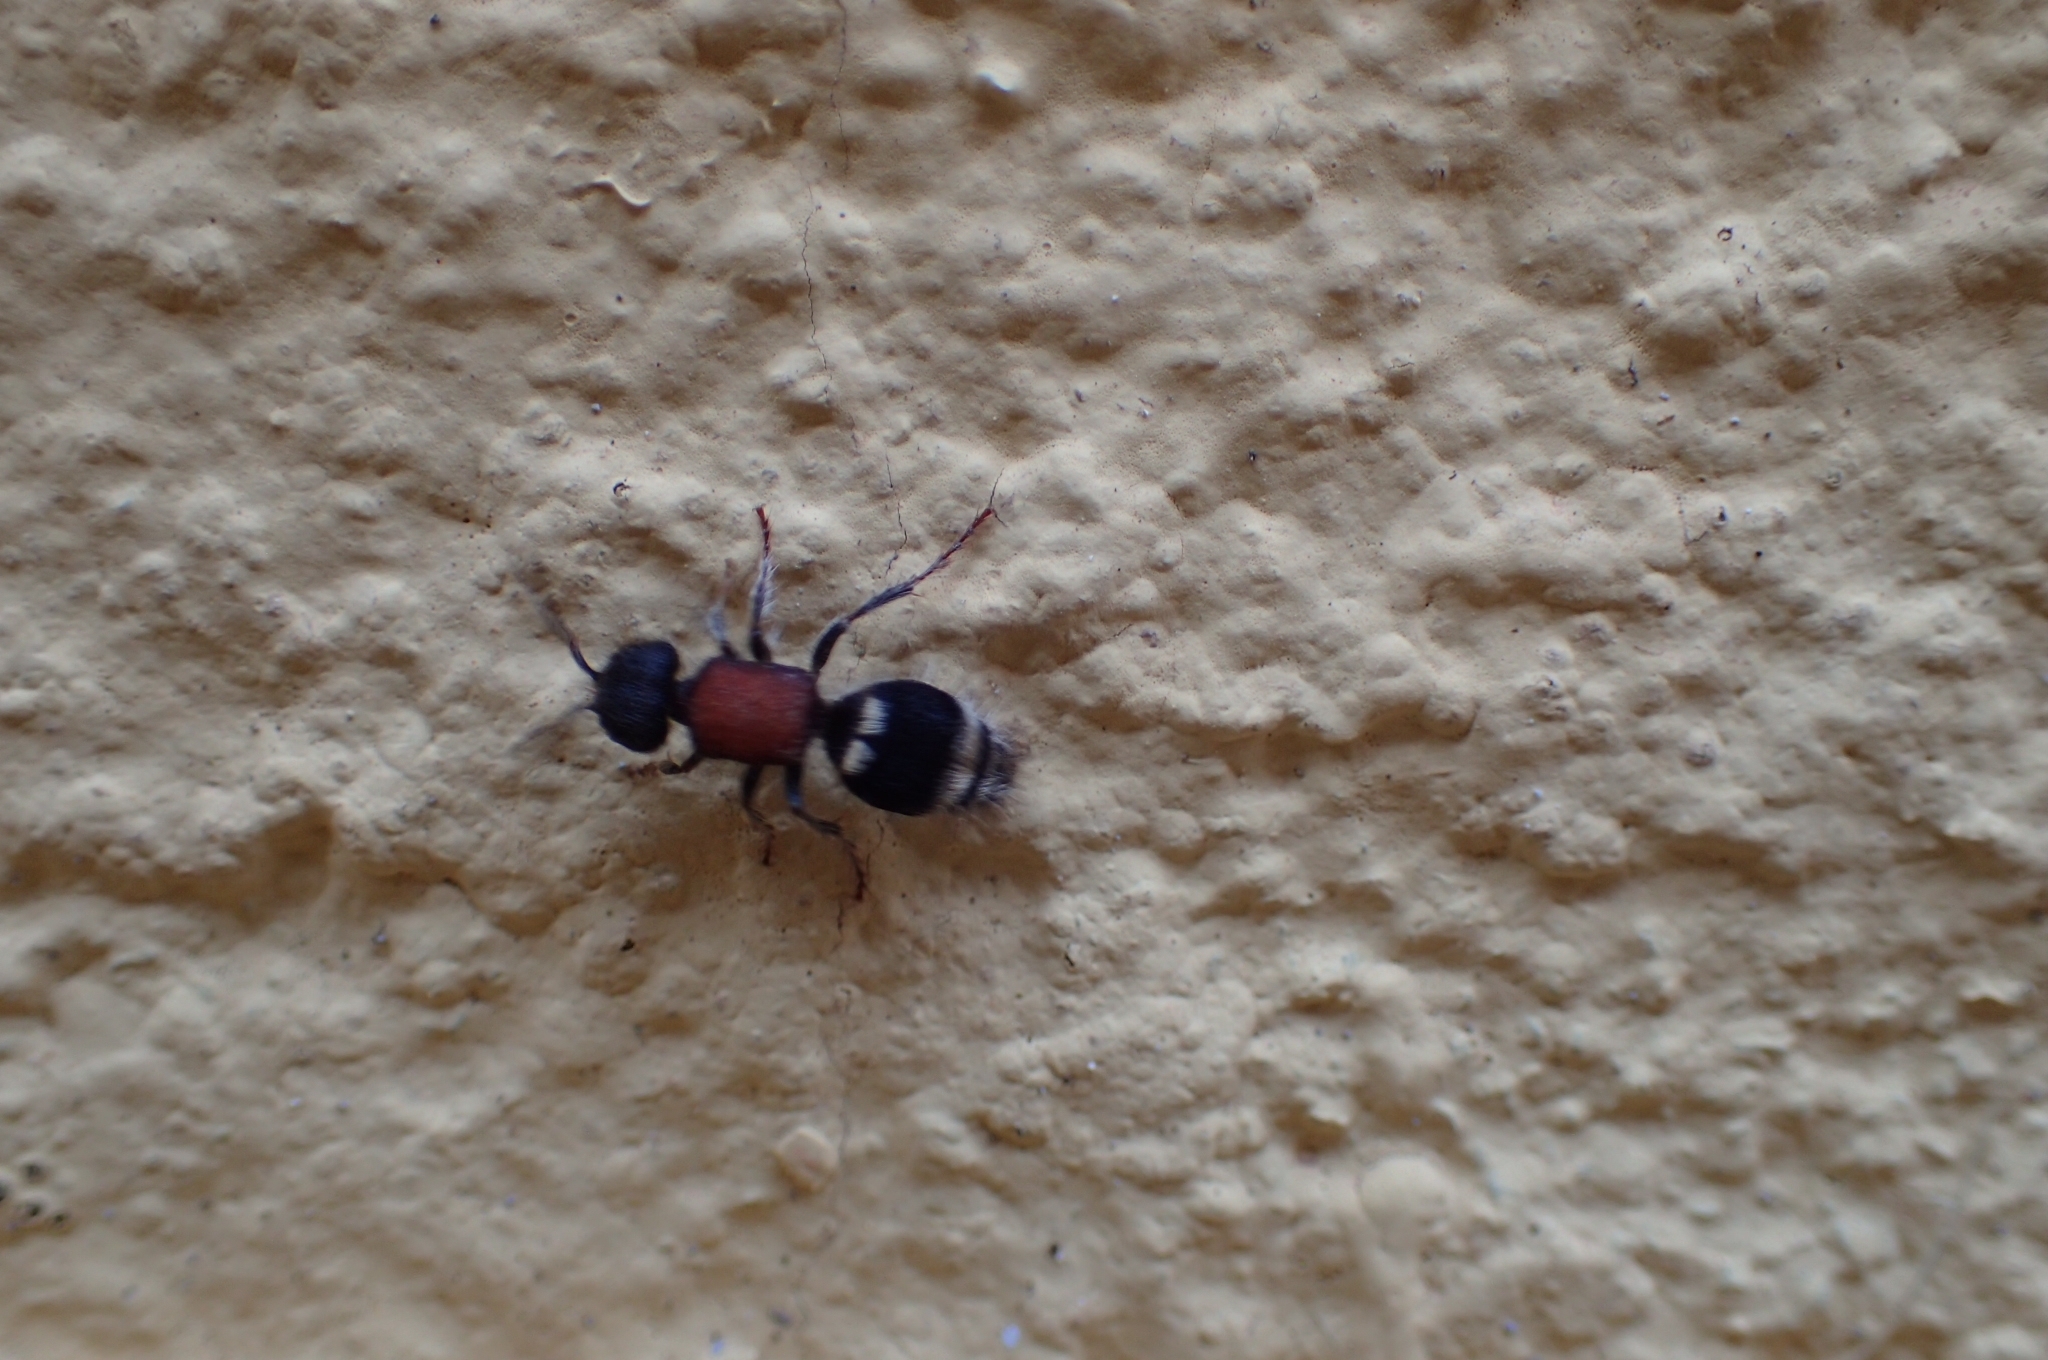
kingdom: Animalia
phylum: Arthropoda
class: Insecta
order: Hymenoptera
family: Mutillidae
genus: Tropidotilla
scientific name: Tropidotilla litoralis
